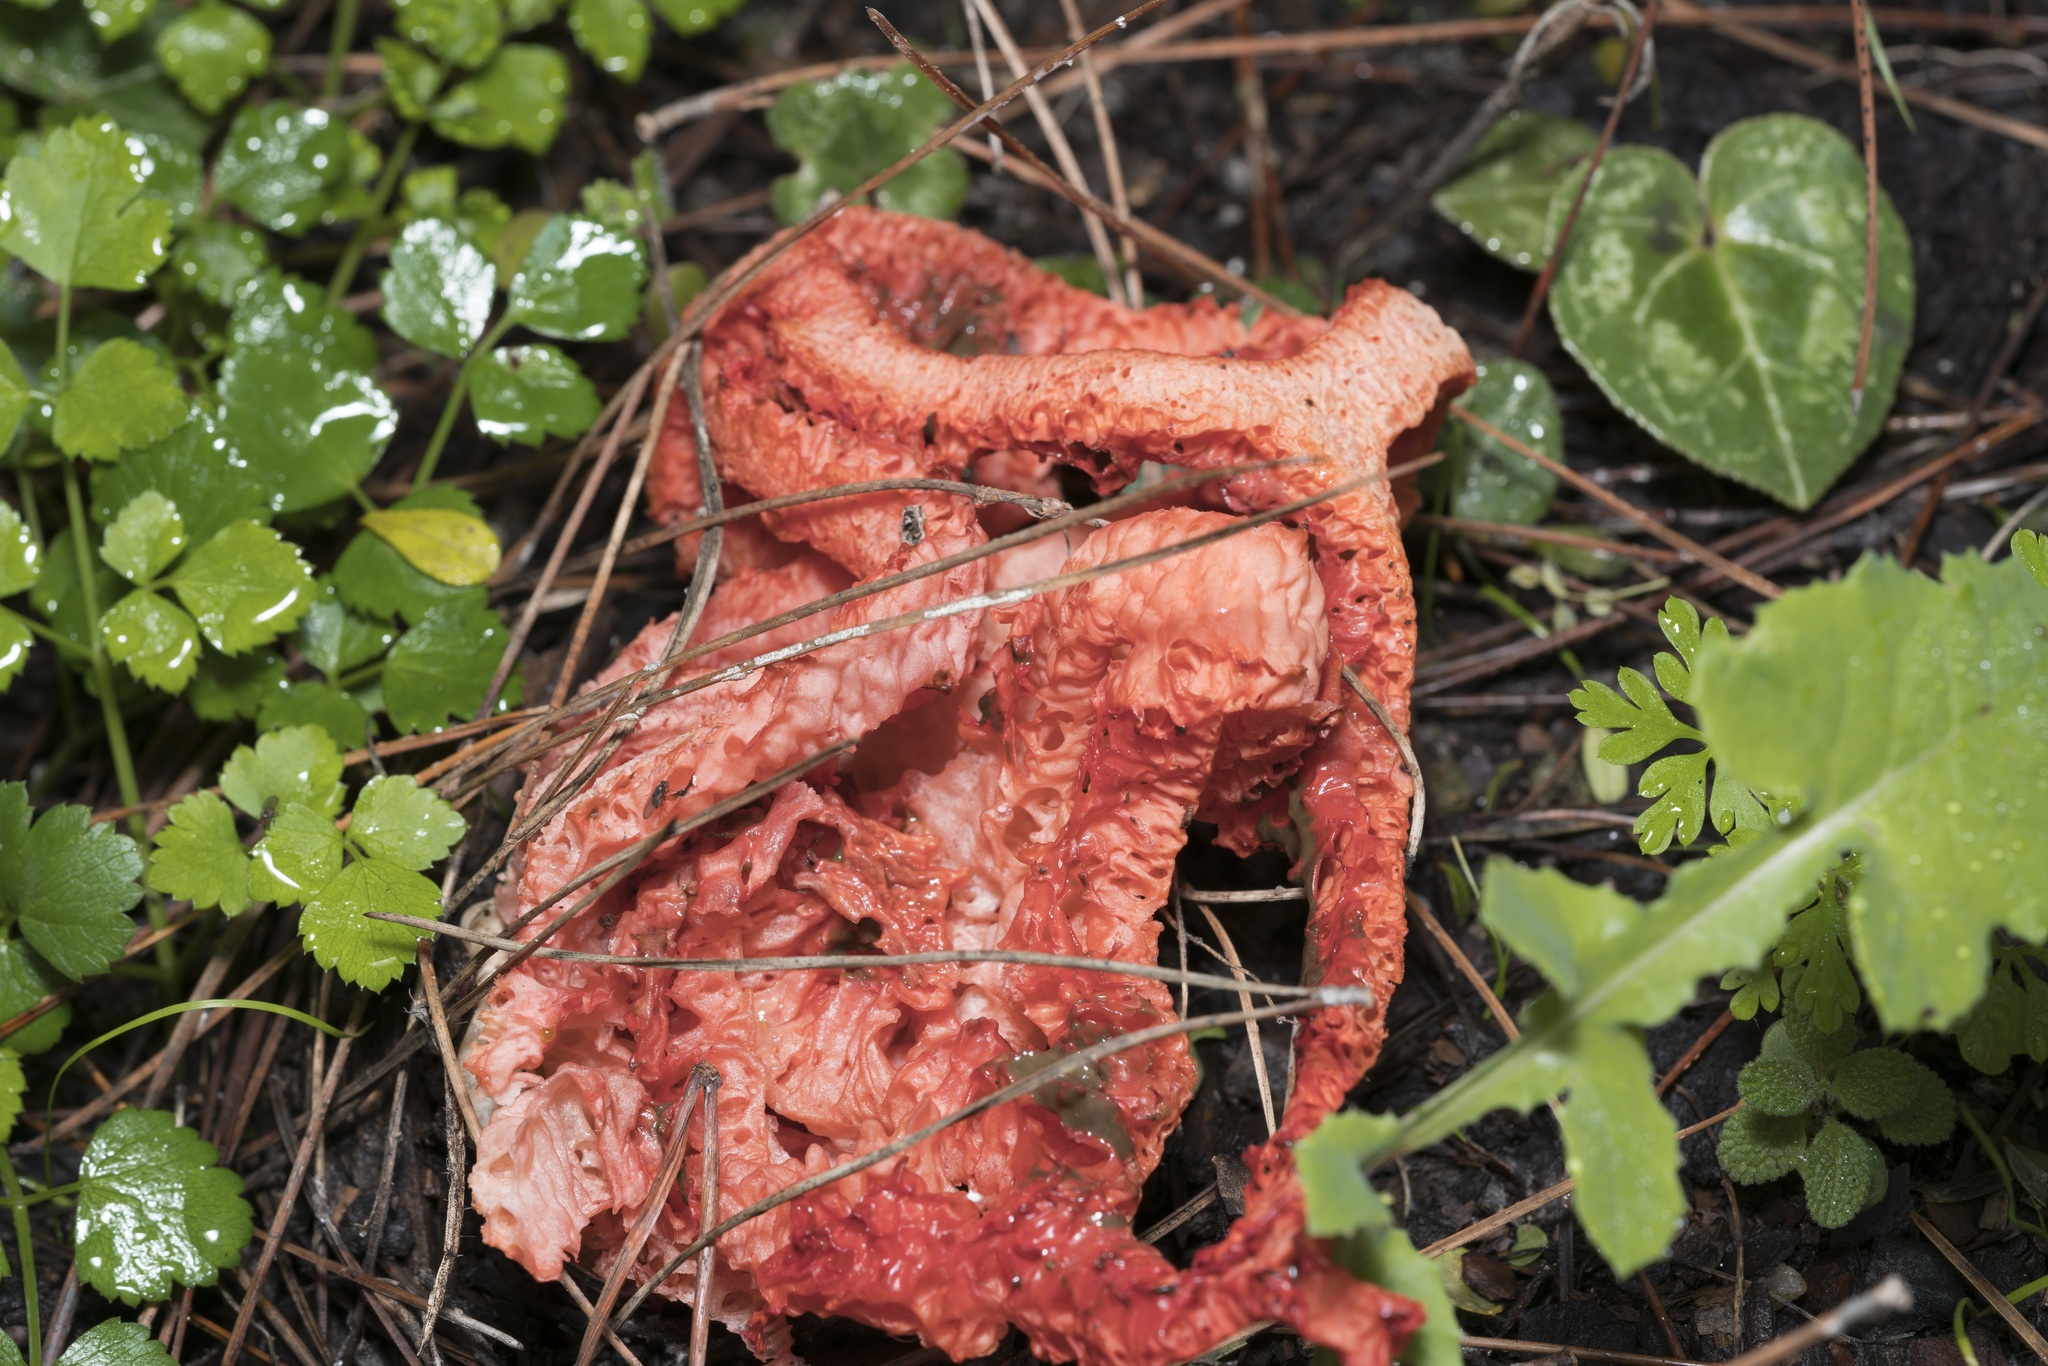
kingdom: Fungi
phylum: Basidiomycota
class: Agaricomycetes
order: Phallales
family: Phallaceae
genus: Clathrus
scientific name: Clathrus ruber
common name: Red cage
